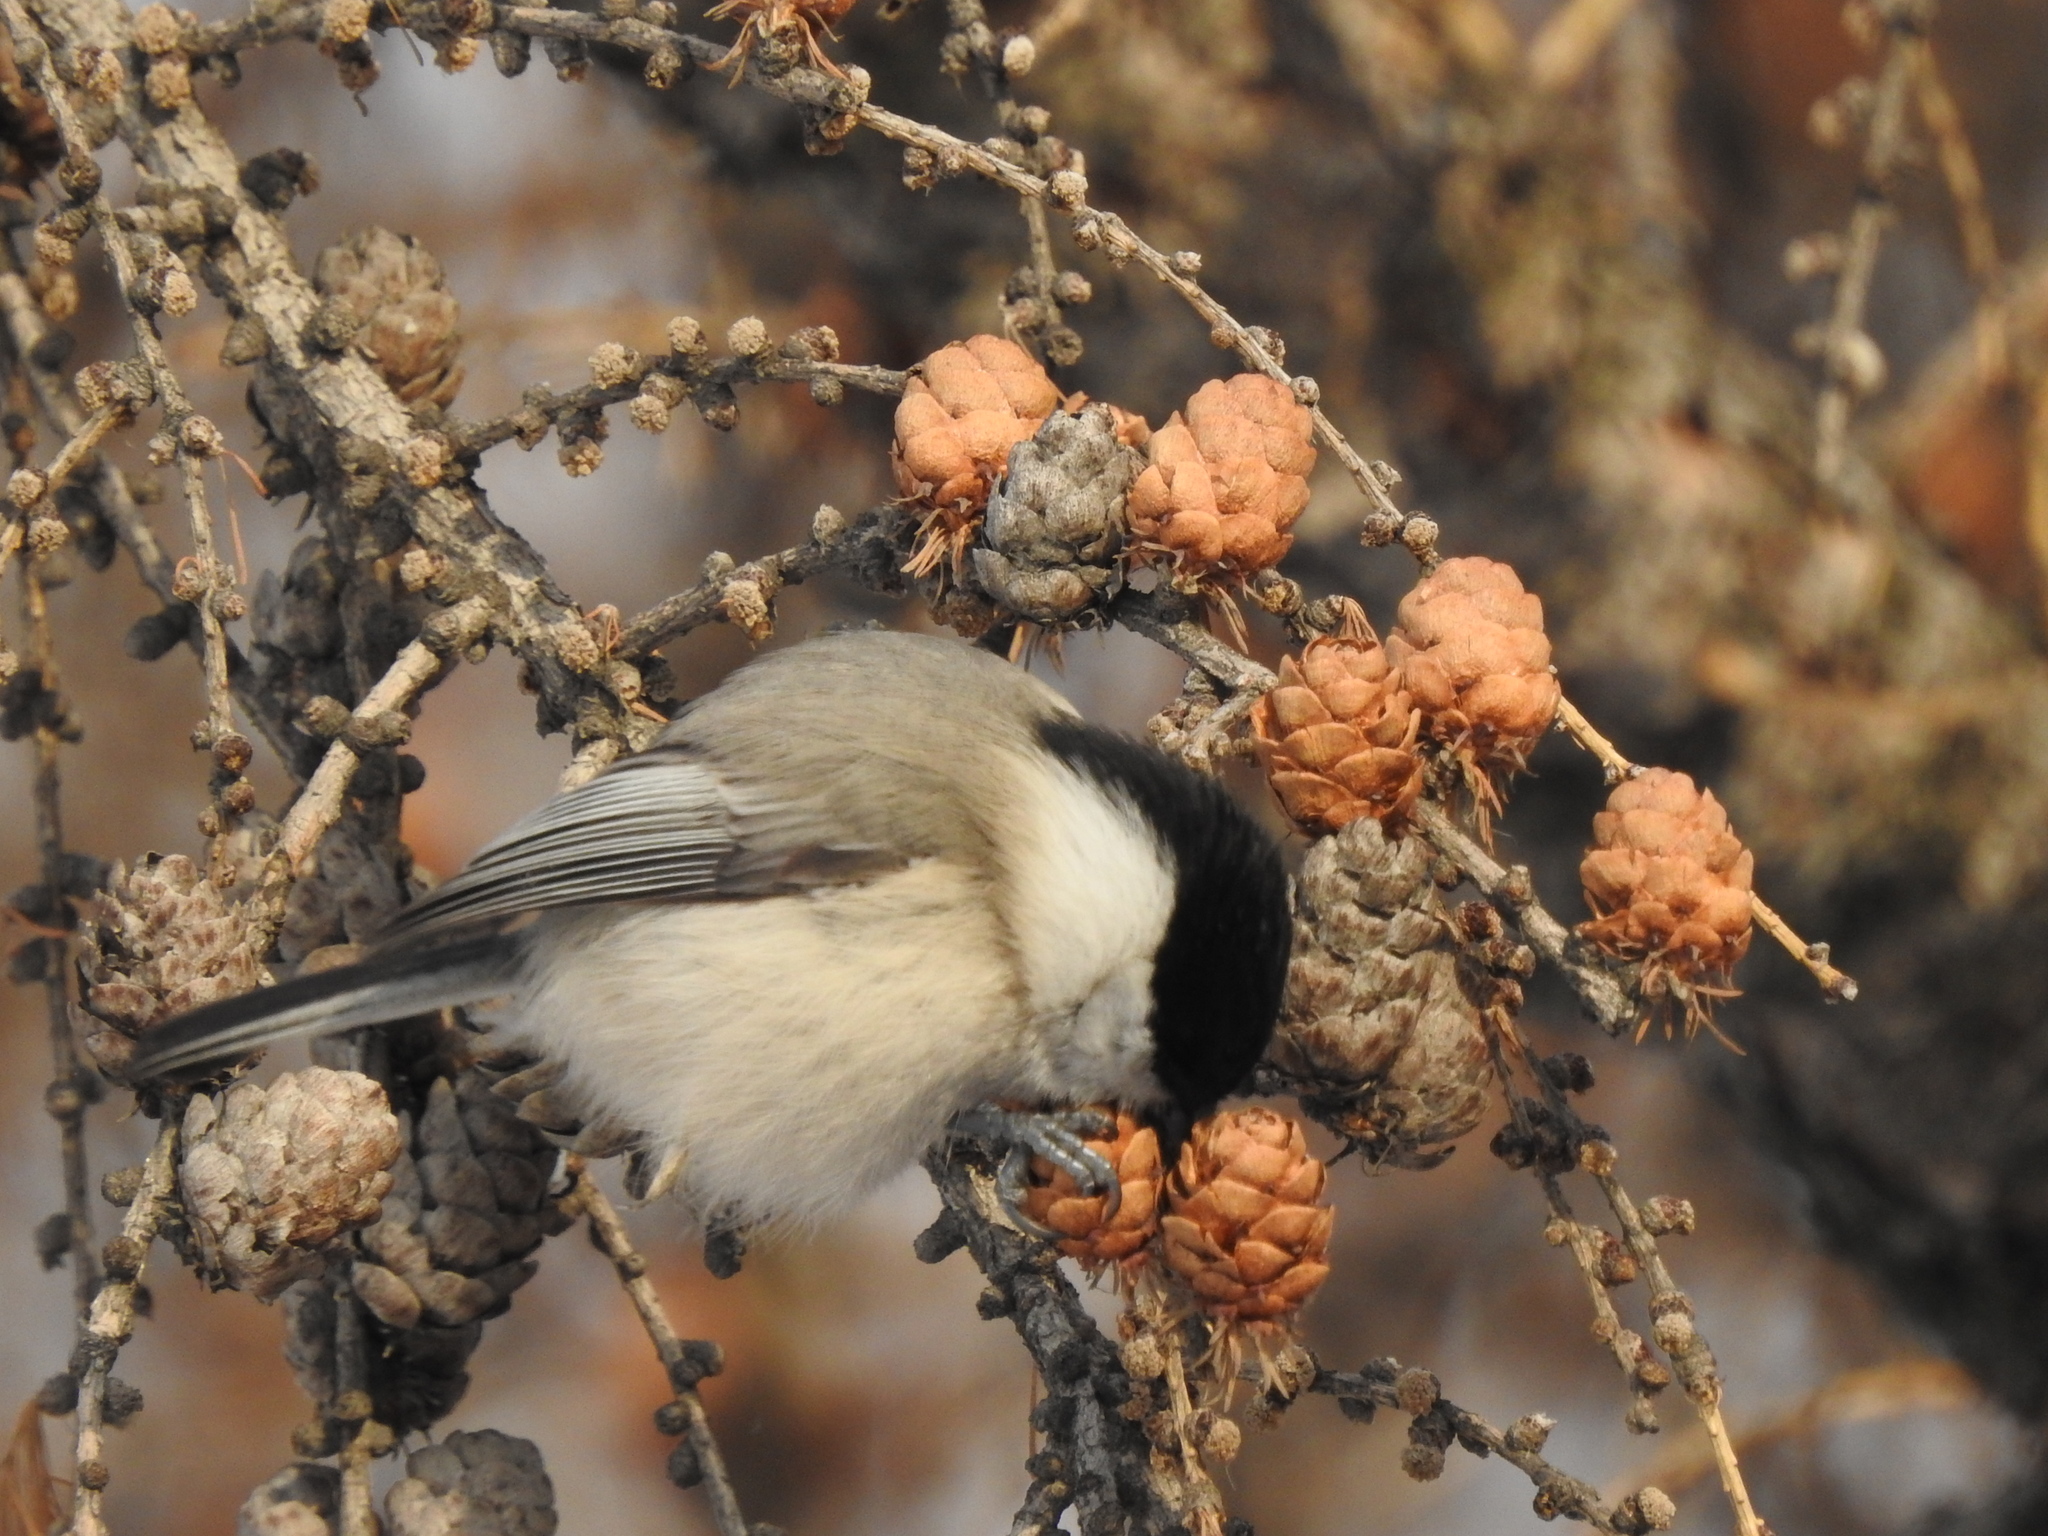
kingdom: Animalia
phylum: Chordata
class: Aves
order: Passeriformes
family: Paridae
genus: Poecile
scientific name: Poecile montanus
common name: Willow tit
